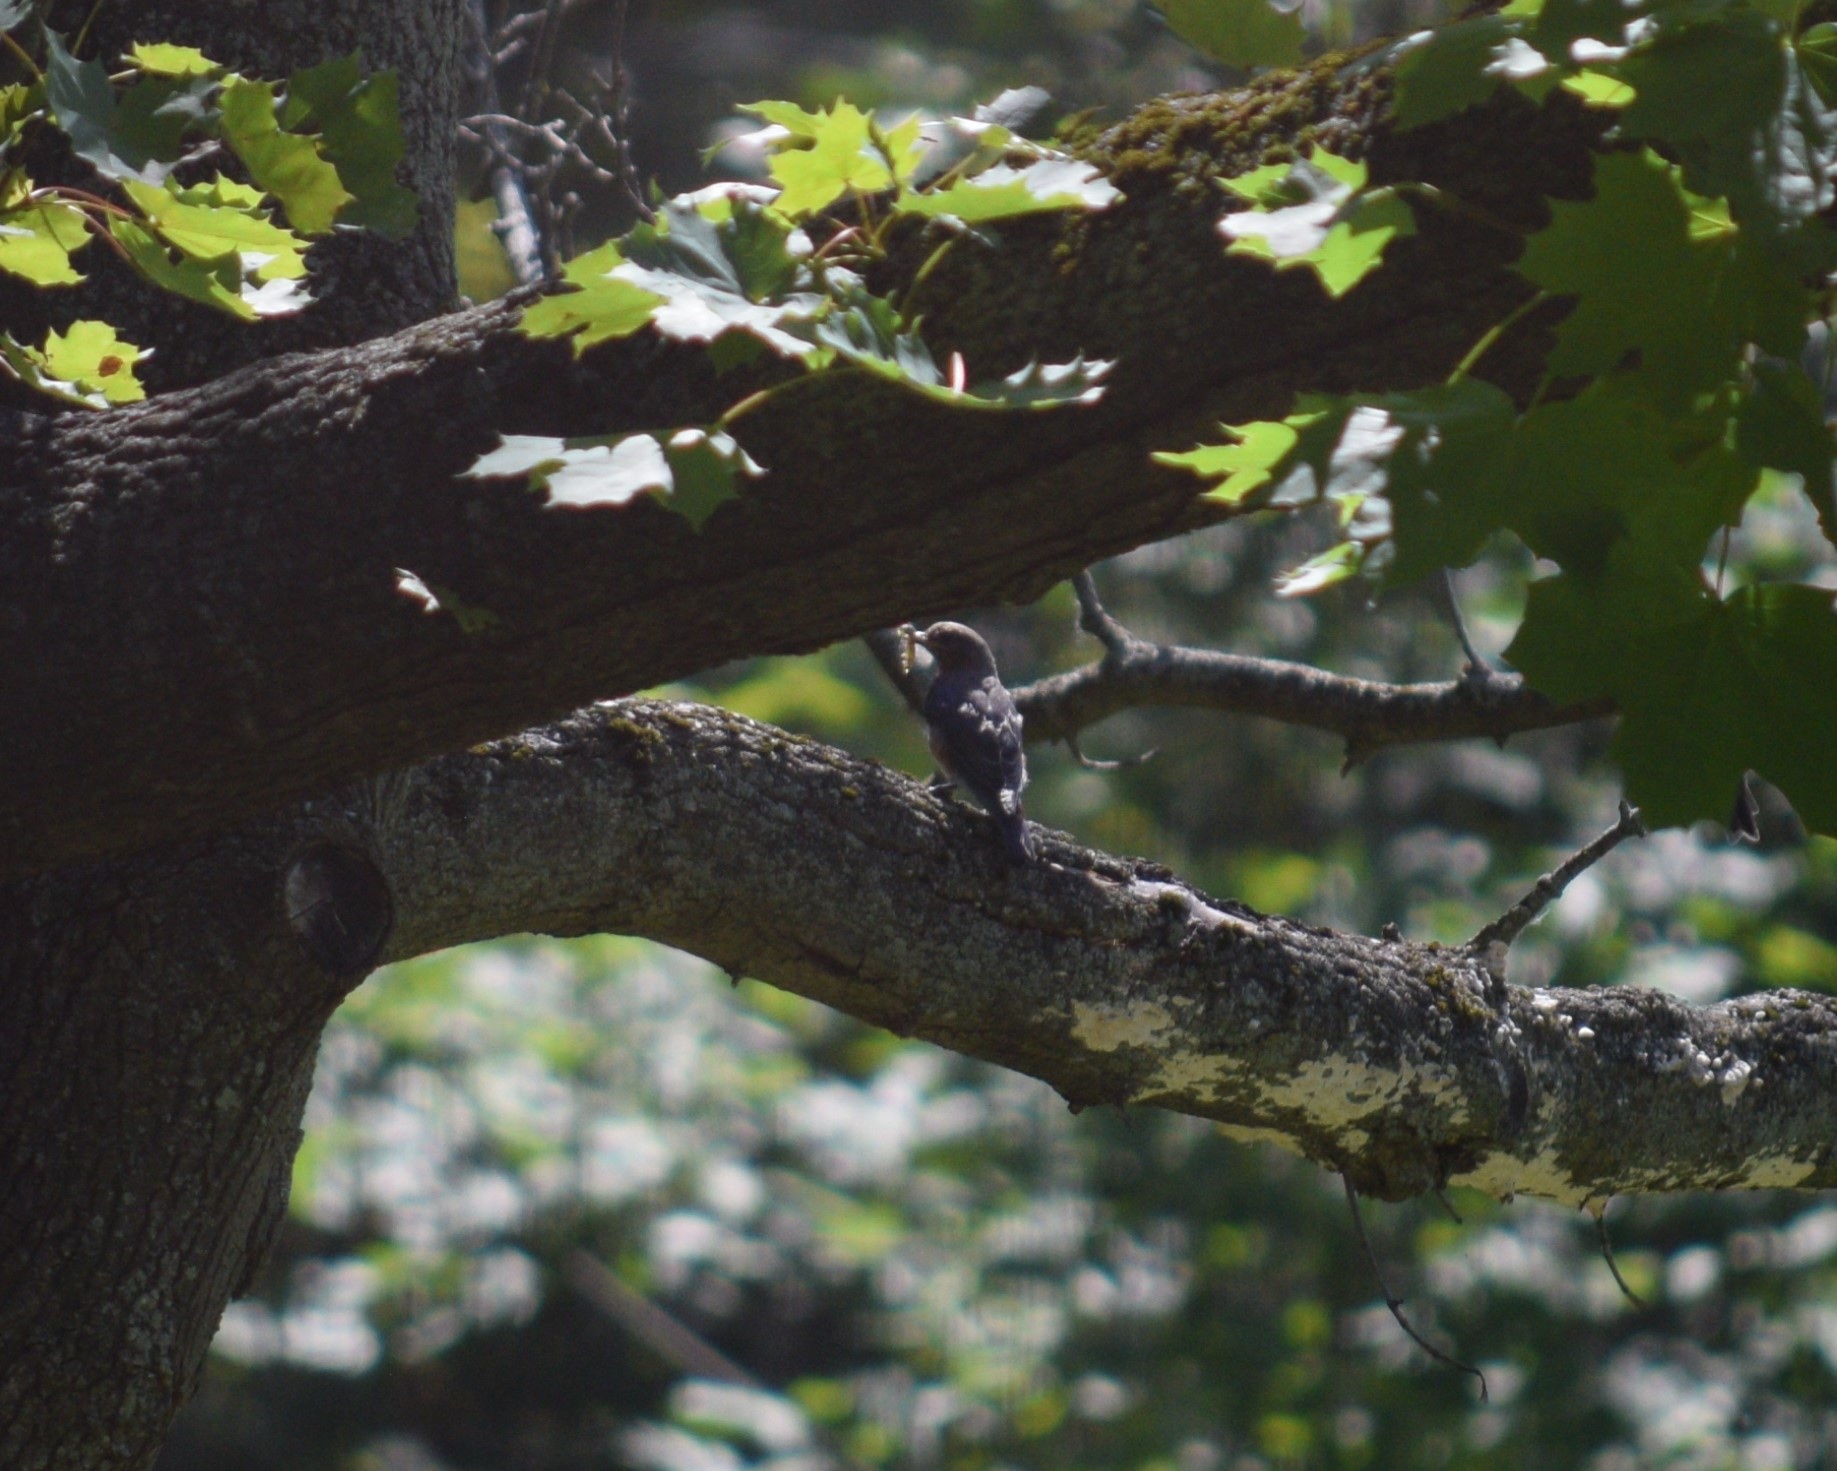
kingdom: Animalia
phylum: Chordata
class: Aves
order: Passeriformes
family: Turdidae
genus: Sialia
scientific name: Sialia sialis
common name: Eastern bluebird
